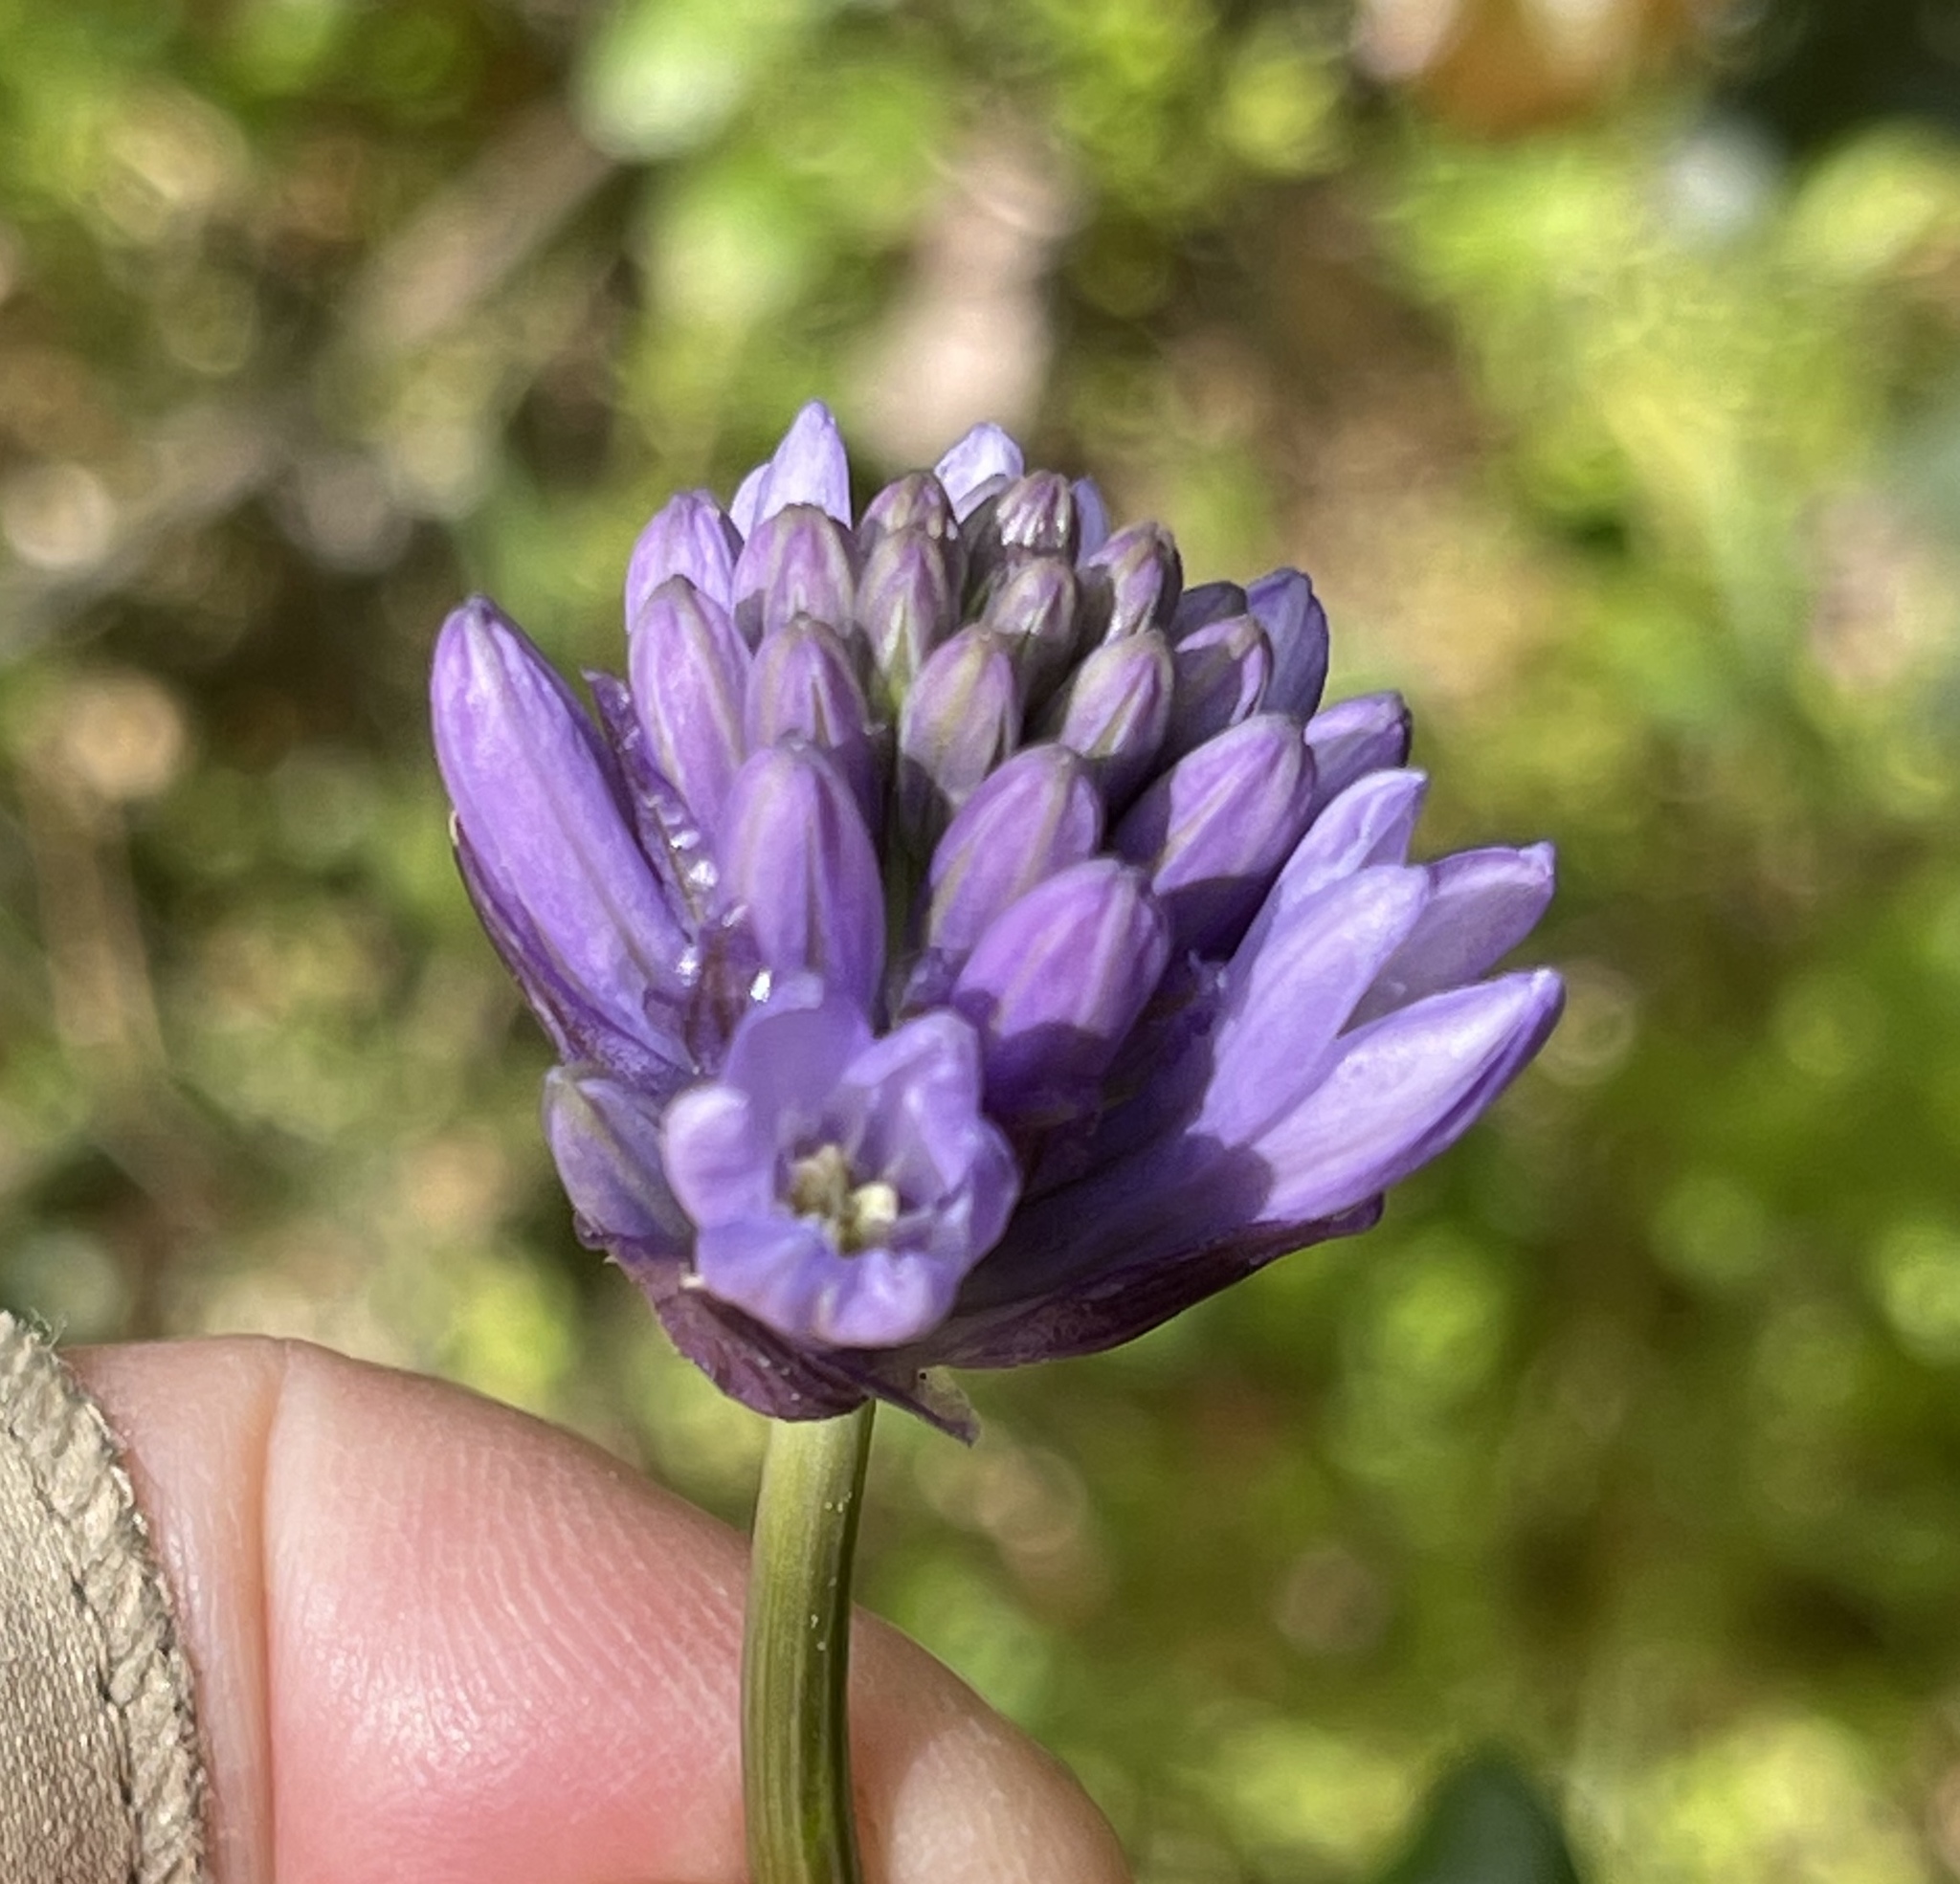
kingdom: Plantae
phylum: Tracheophyta
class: Liliopsida
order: Asparagales
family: Asparagaceae
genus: Dichelostemma
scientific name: Dichelostemma congestum
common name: Fork-tooth ookow
